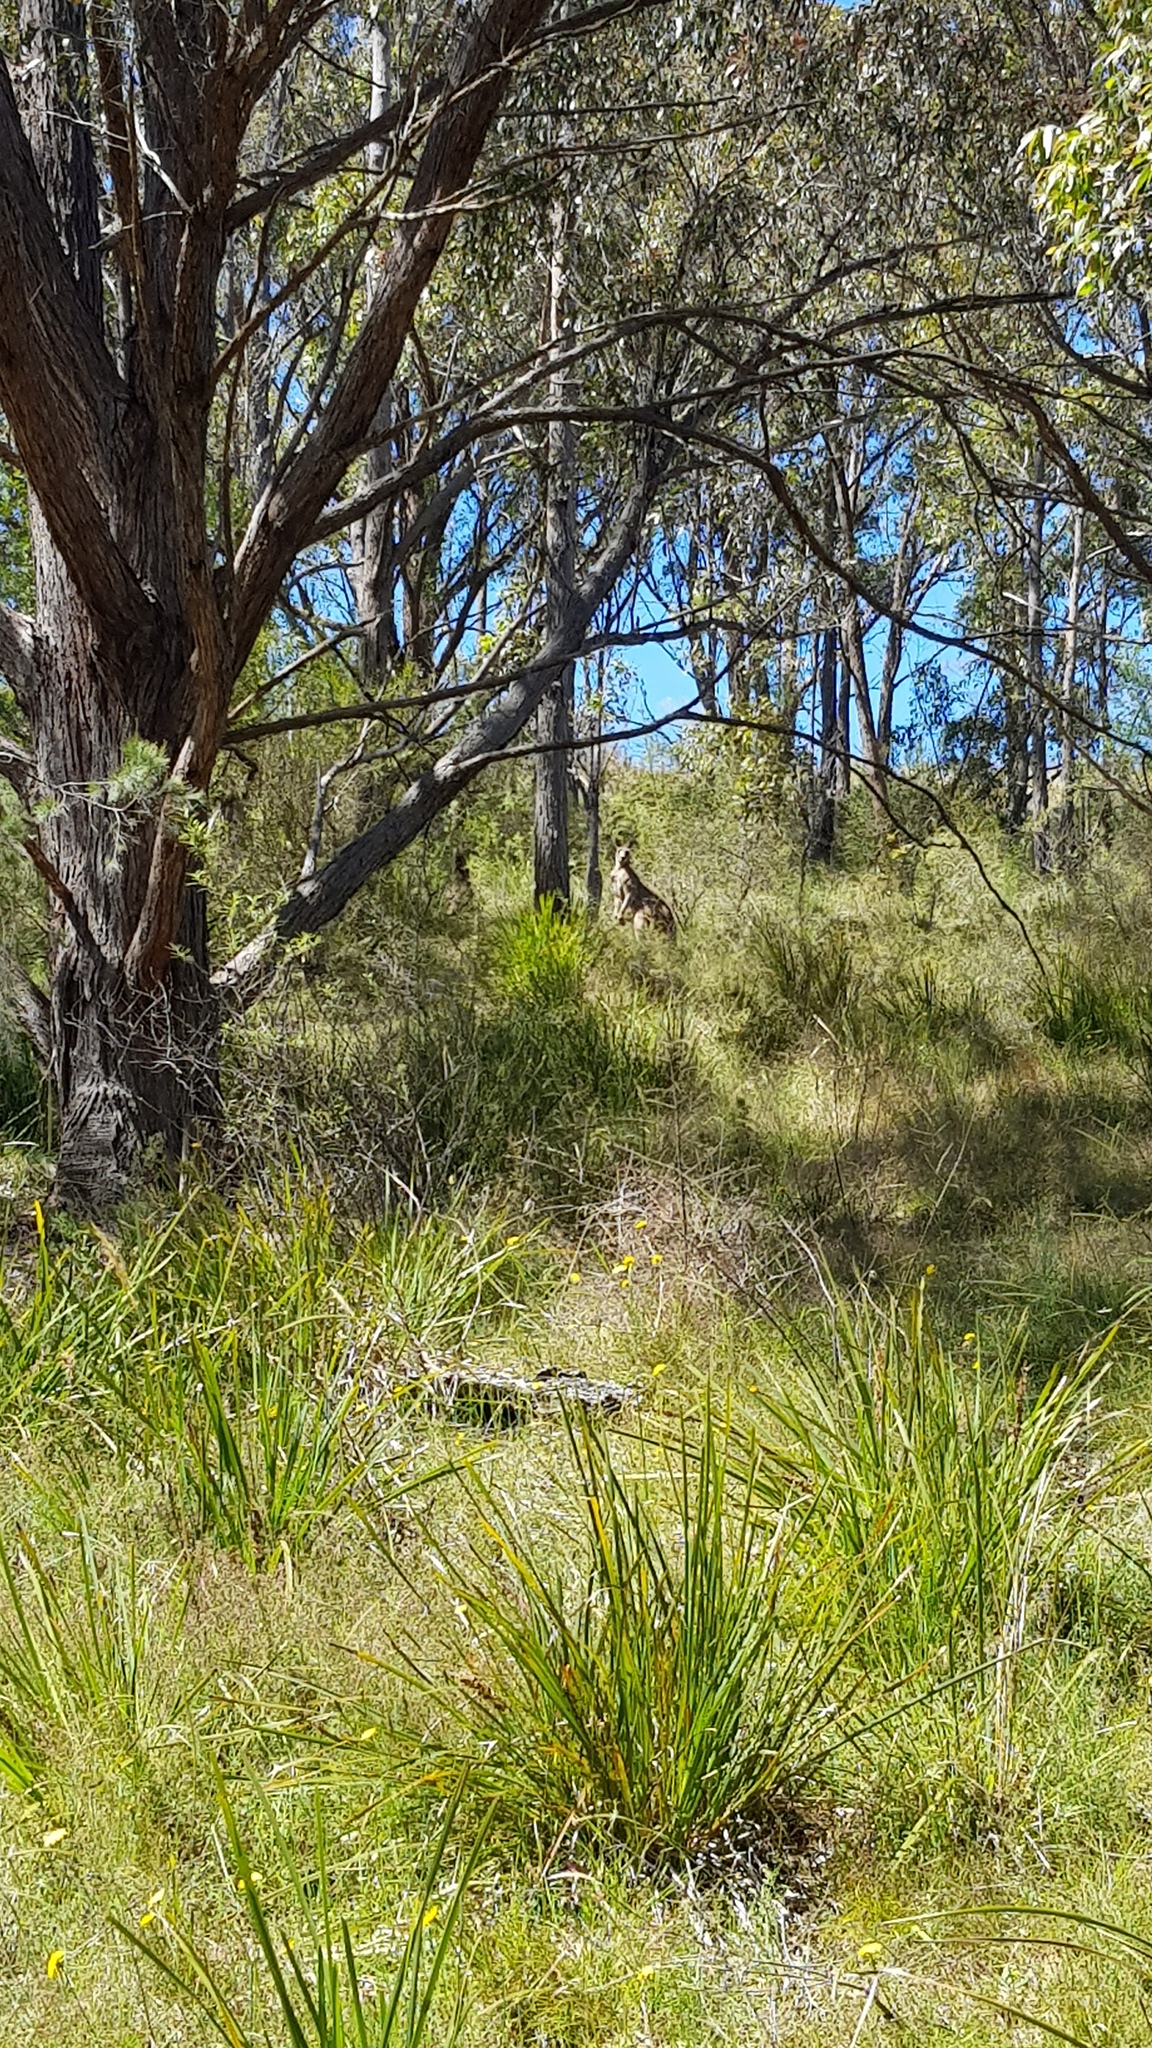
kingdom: Animalia
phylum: Chordata
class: Mammalia
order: Diprotodontia
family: Macropodidae
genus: Macropus
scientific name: Macropus giganteus
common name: Eastern grey kangaroo
